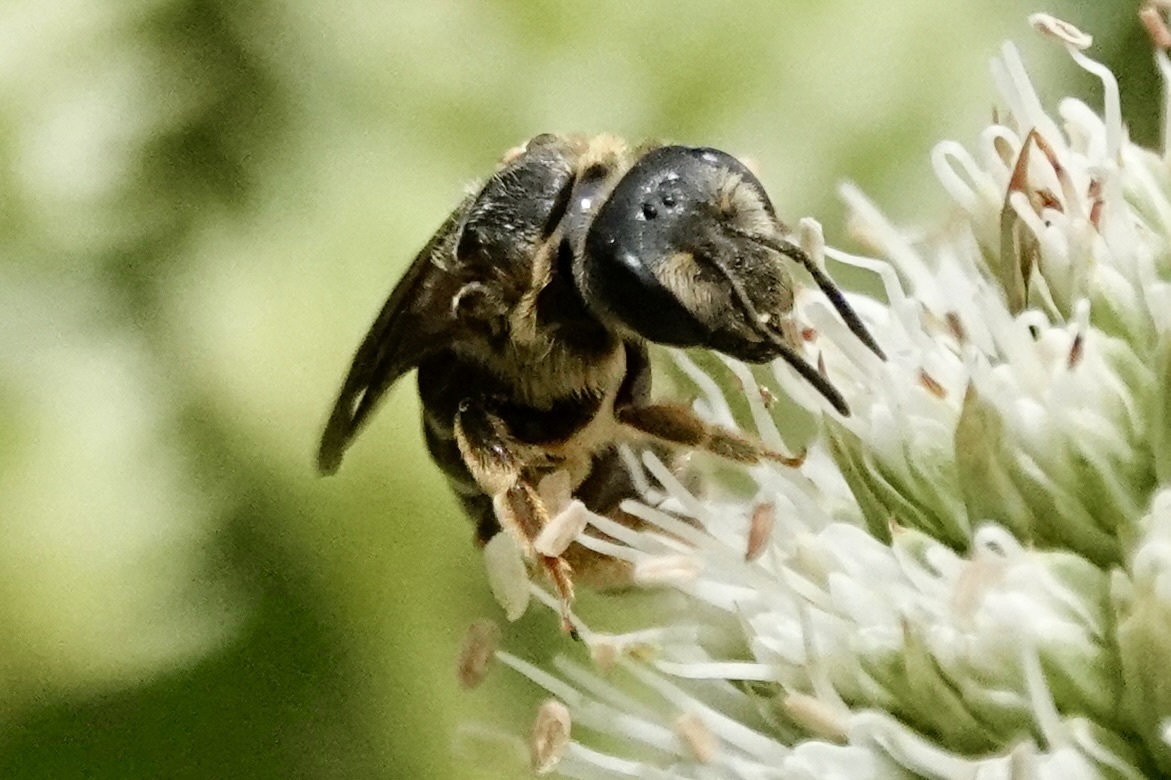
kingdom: Animalia
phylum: Arthropoda
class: Insecta
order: Hymenoptera
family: Halictidae
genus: Halictus
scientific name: Halictus parallelus
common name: Parallel-striped sweat bee
